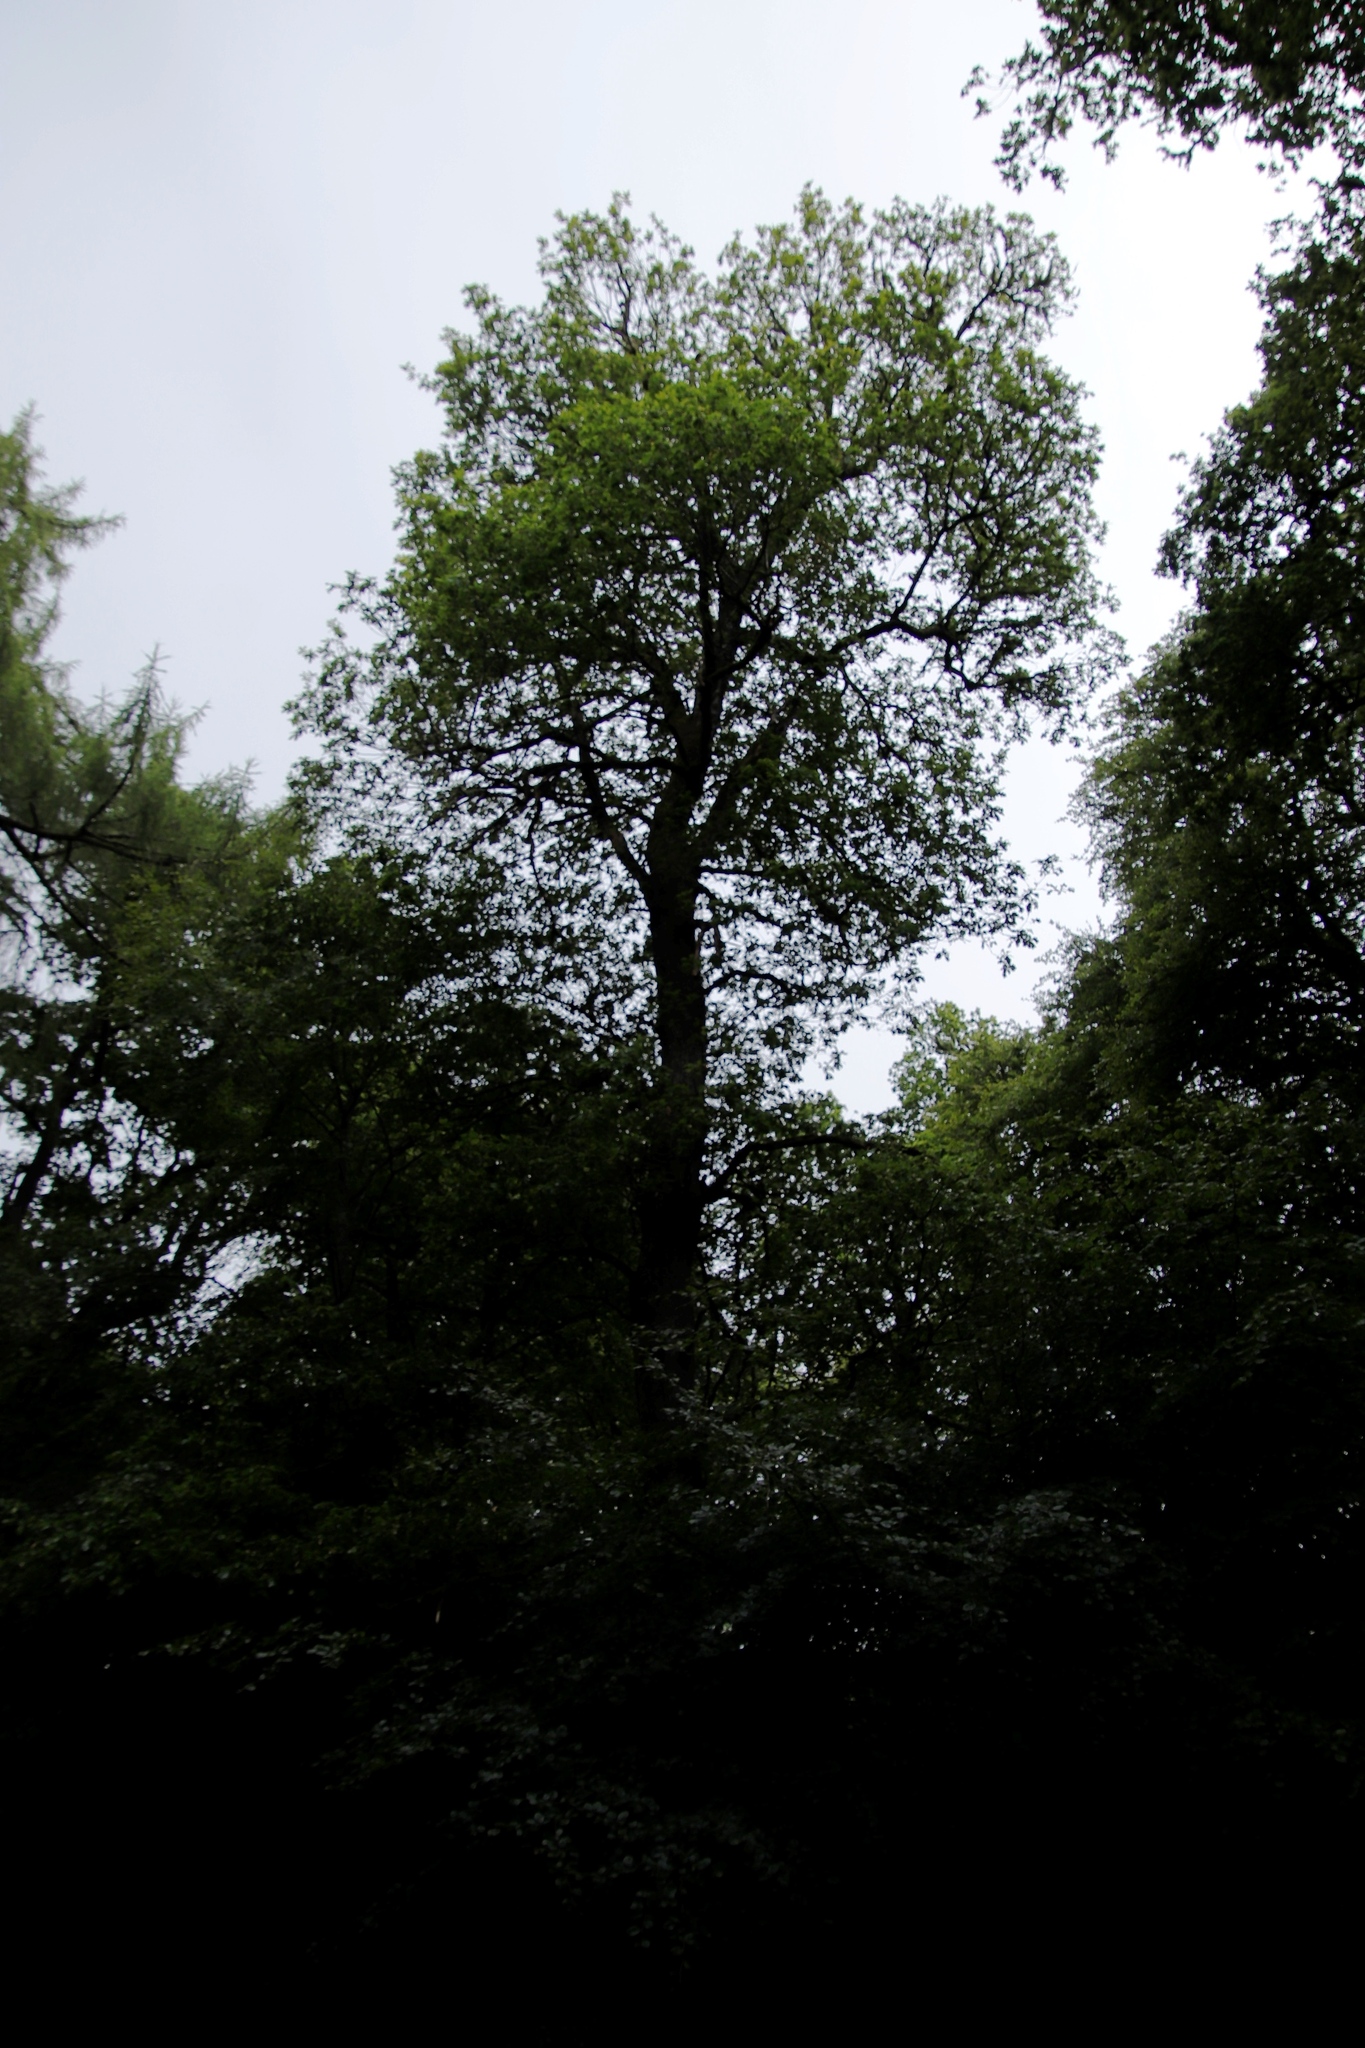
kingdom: Plantae
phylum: Tracheophyta
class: Magnoliopsida
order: Fagales
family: Fagaceae
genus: Fagus
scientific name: Fagus sylvatica
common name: Beech
